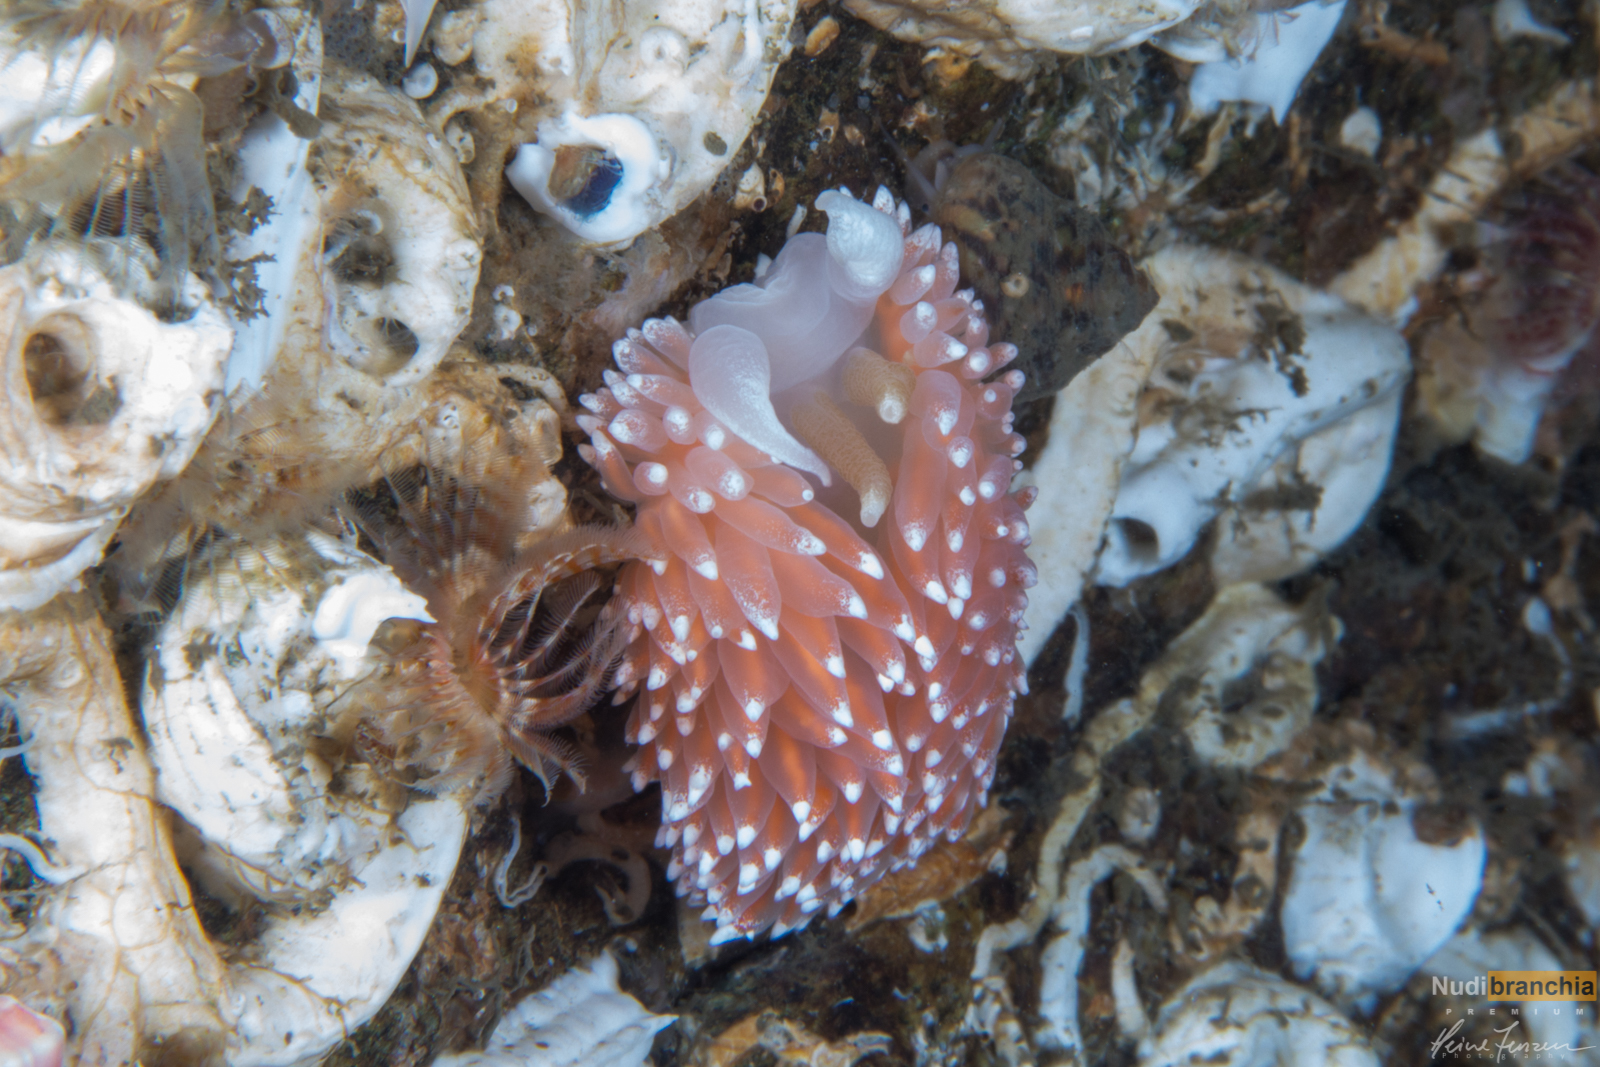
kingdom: Animalia
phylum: Mollusca
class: Gastropoda
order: Nudibranchia
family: Coryphellidae
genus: Coryphella
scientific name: Coryphella nobilis
